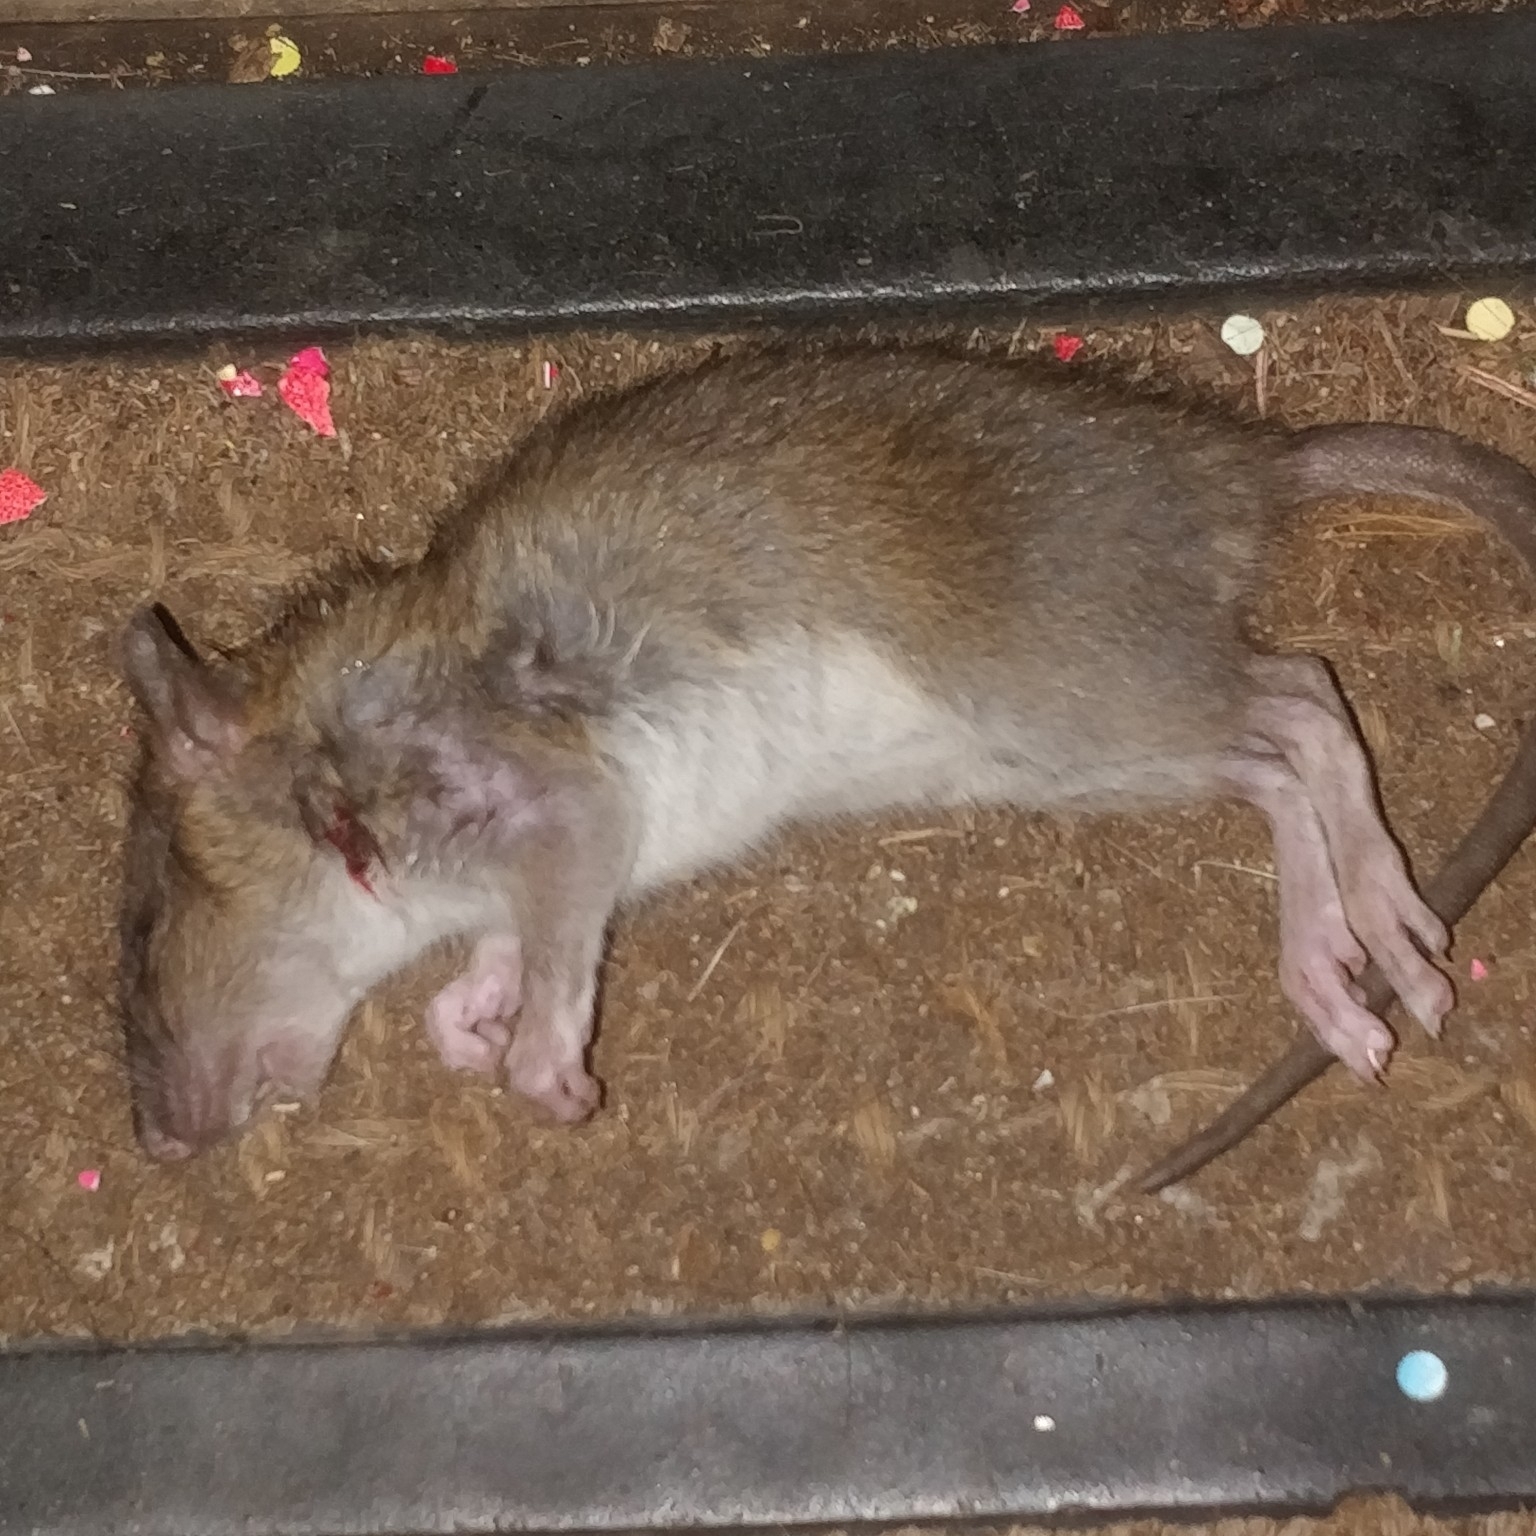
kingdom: Animalia
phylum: Chordata
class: Mammalia
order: Rodentia
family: Muridae
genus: Rattus
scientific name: Rattus norvegicus
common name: Brown rat
